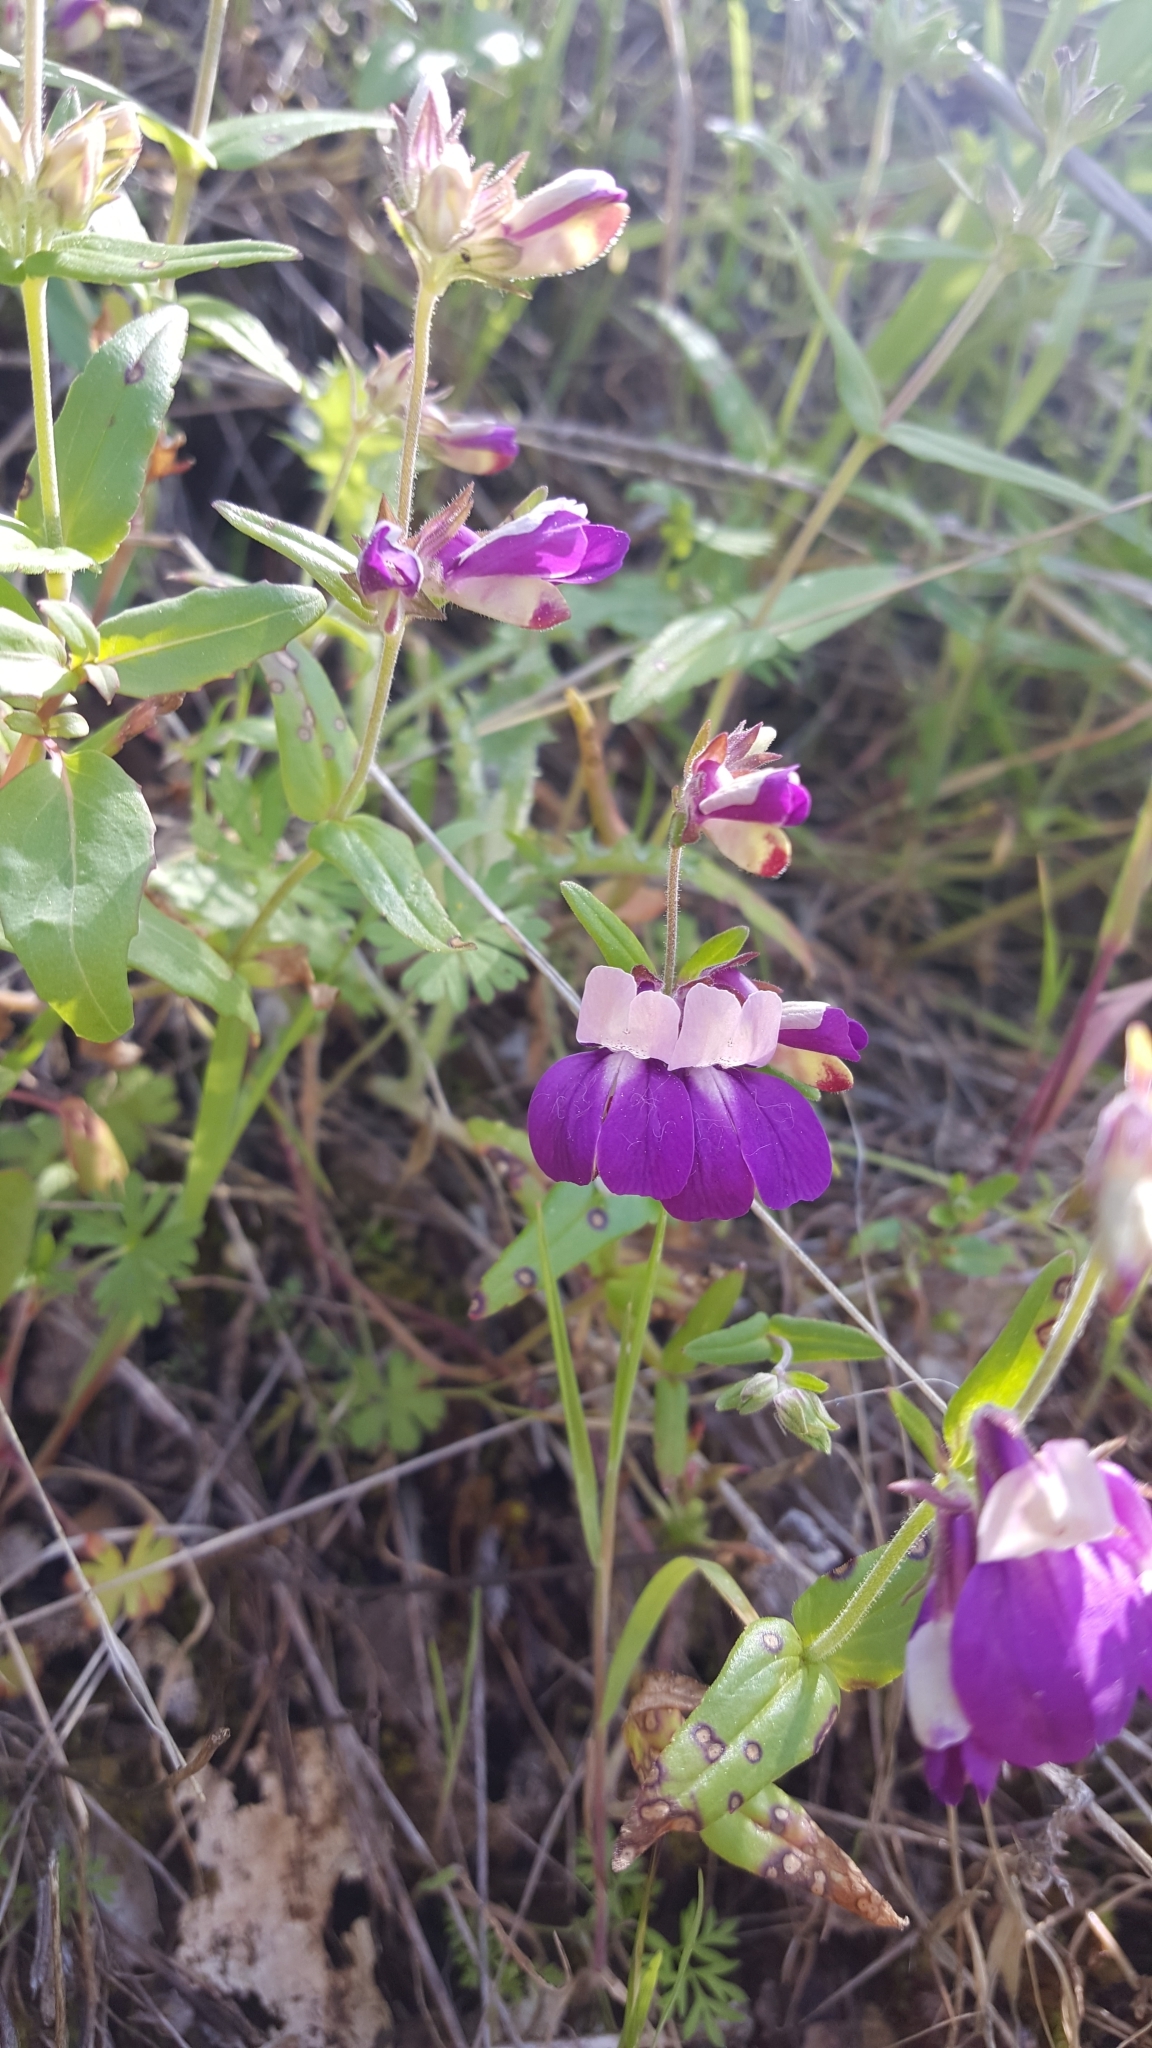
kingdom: Plantae
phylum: Tracheophyta
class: Magnoliopsida
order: Lamiales
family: Plantaginaceae
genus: Collinsia
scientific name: Collinsia heterophylla
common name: Chinese-houses
